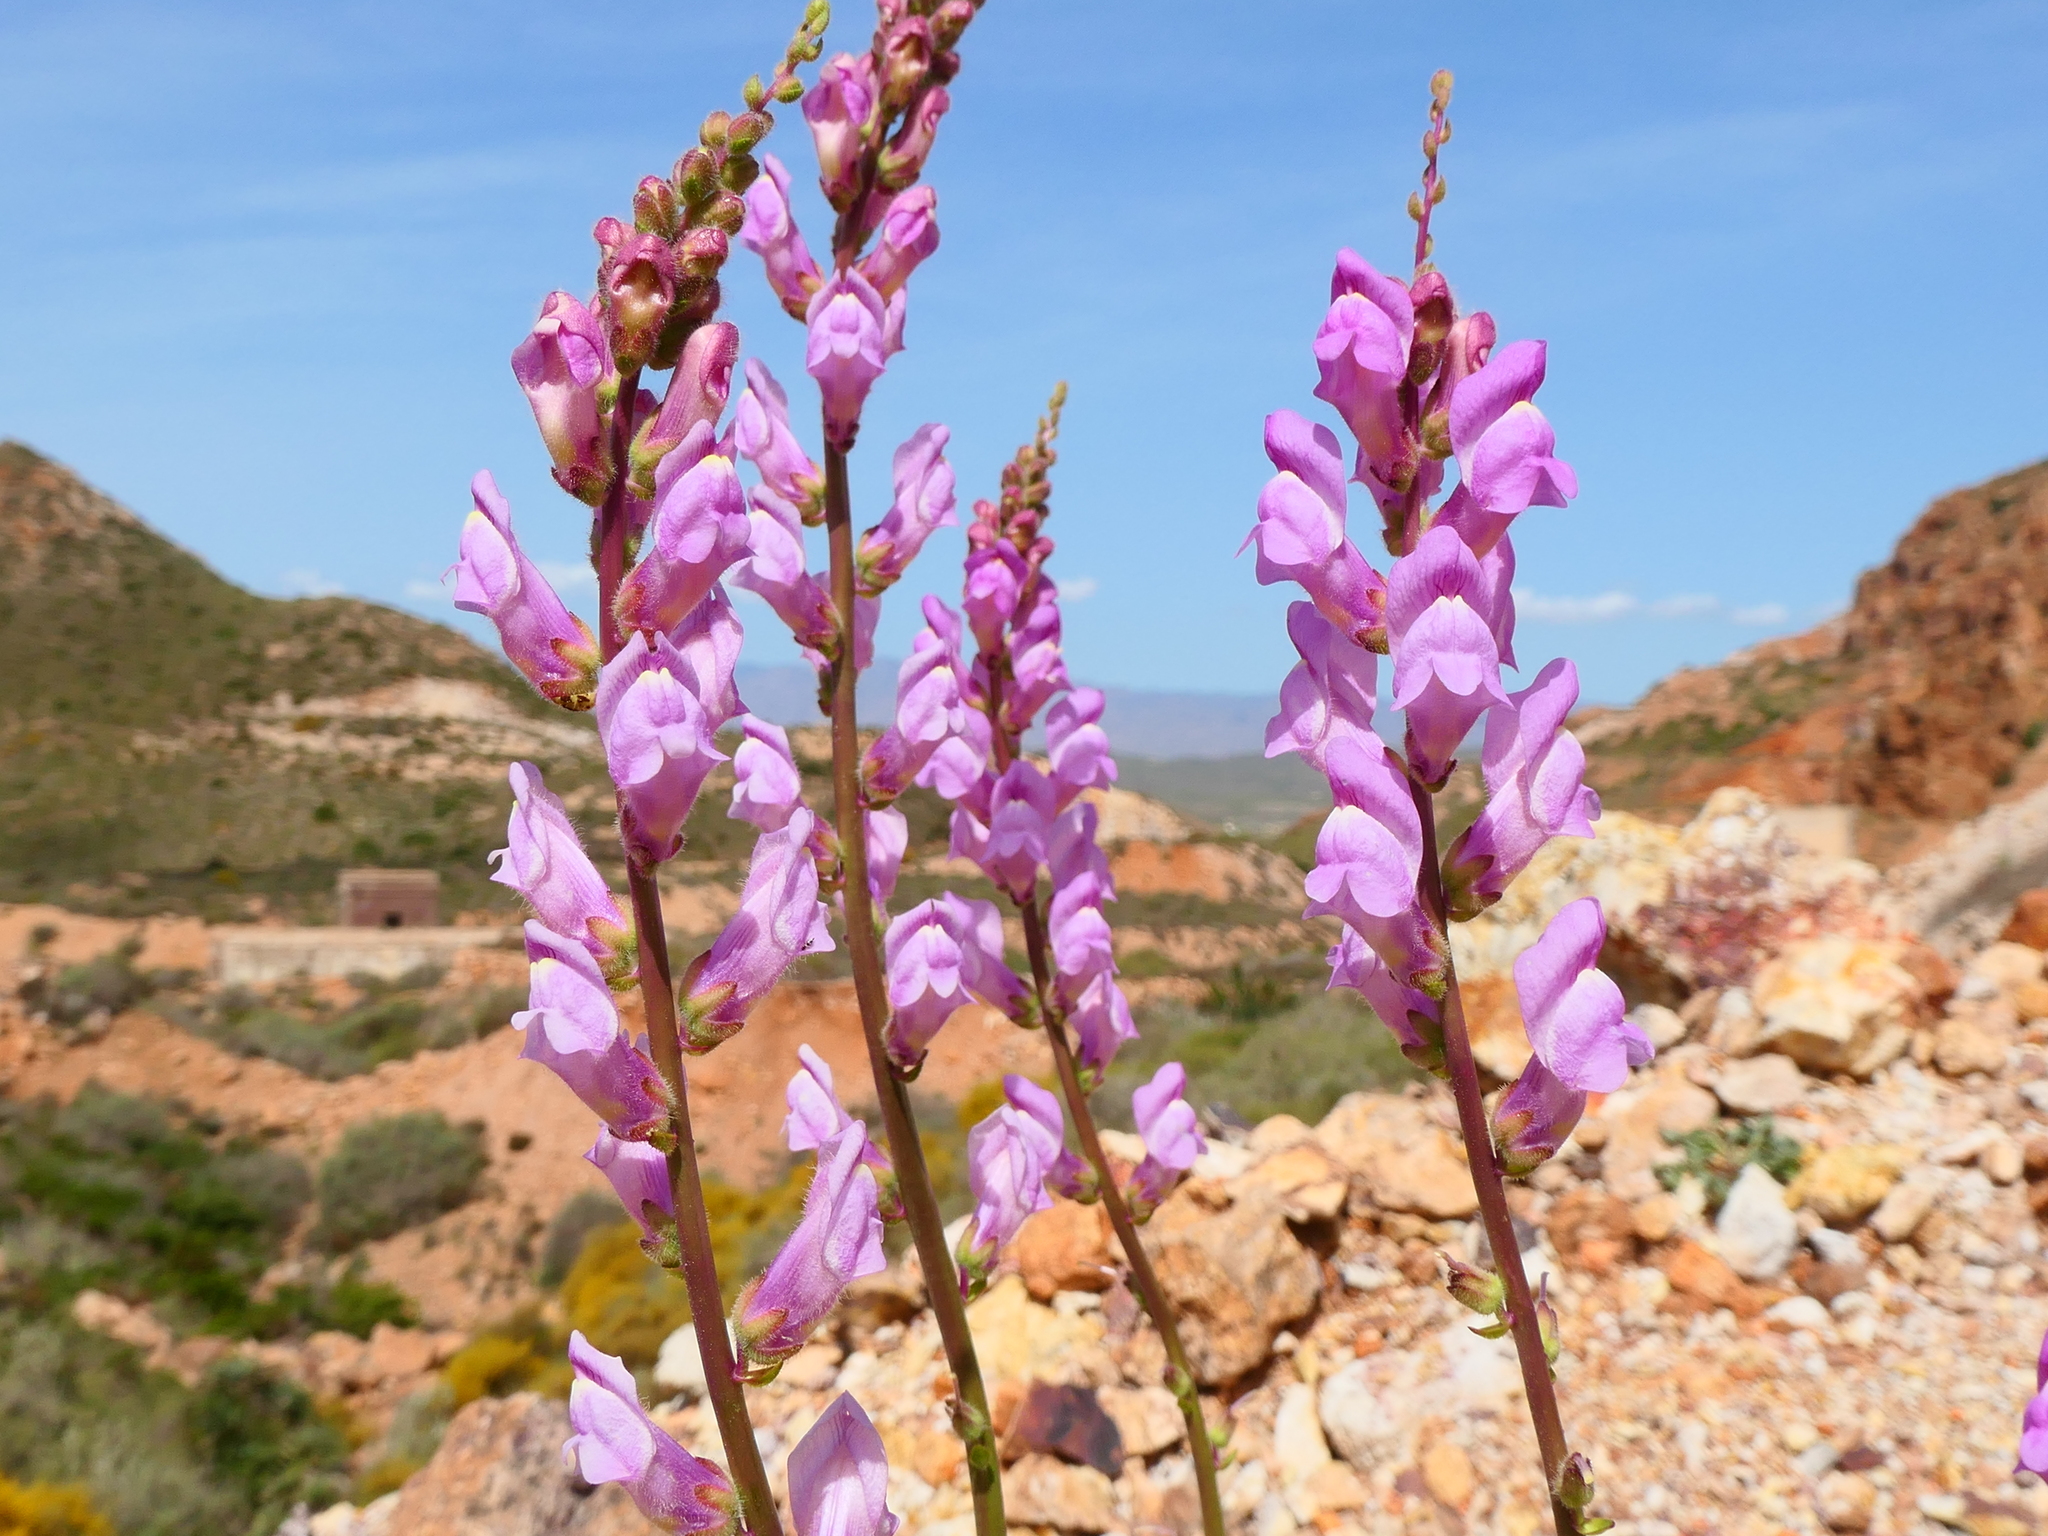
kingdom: Plantae
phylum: Tracheophyta
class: Magnoliopsida
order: Lamiales
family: Plantaginaceae
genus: Antirrhinum
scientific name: Antirrhinum litigiosum
